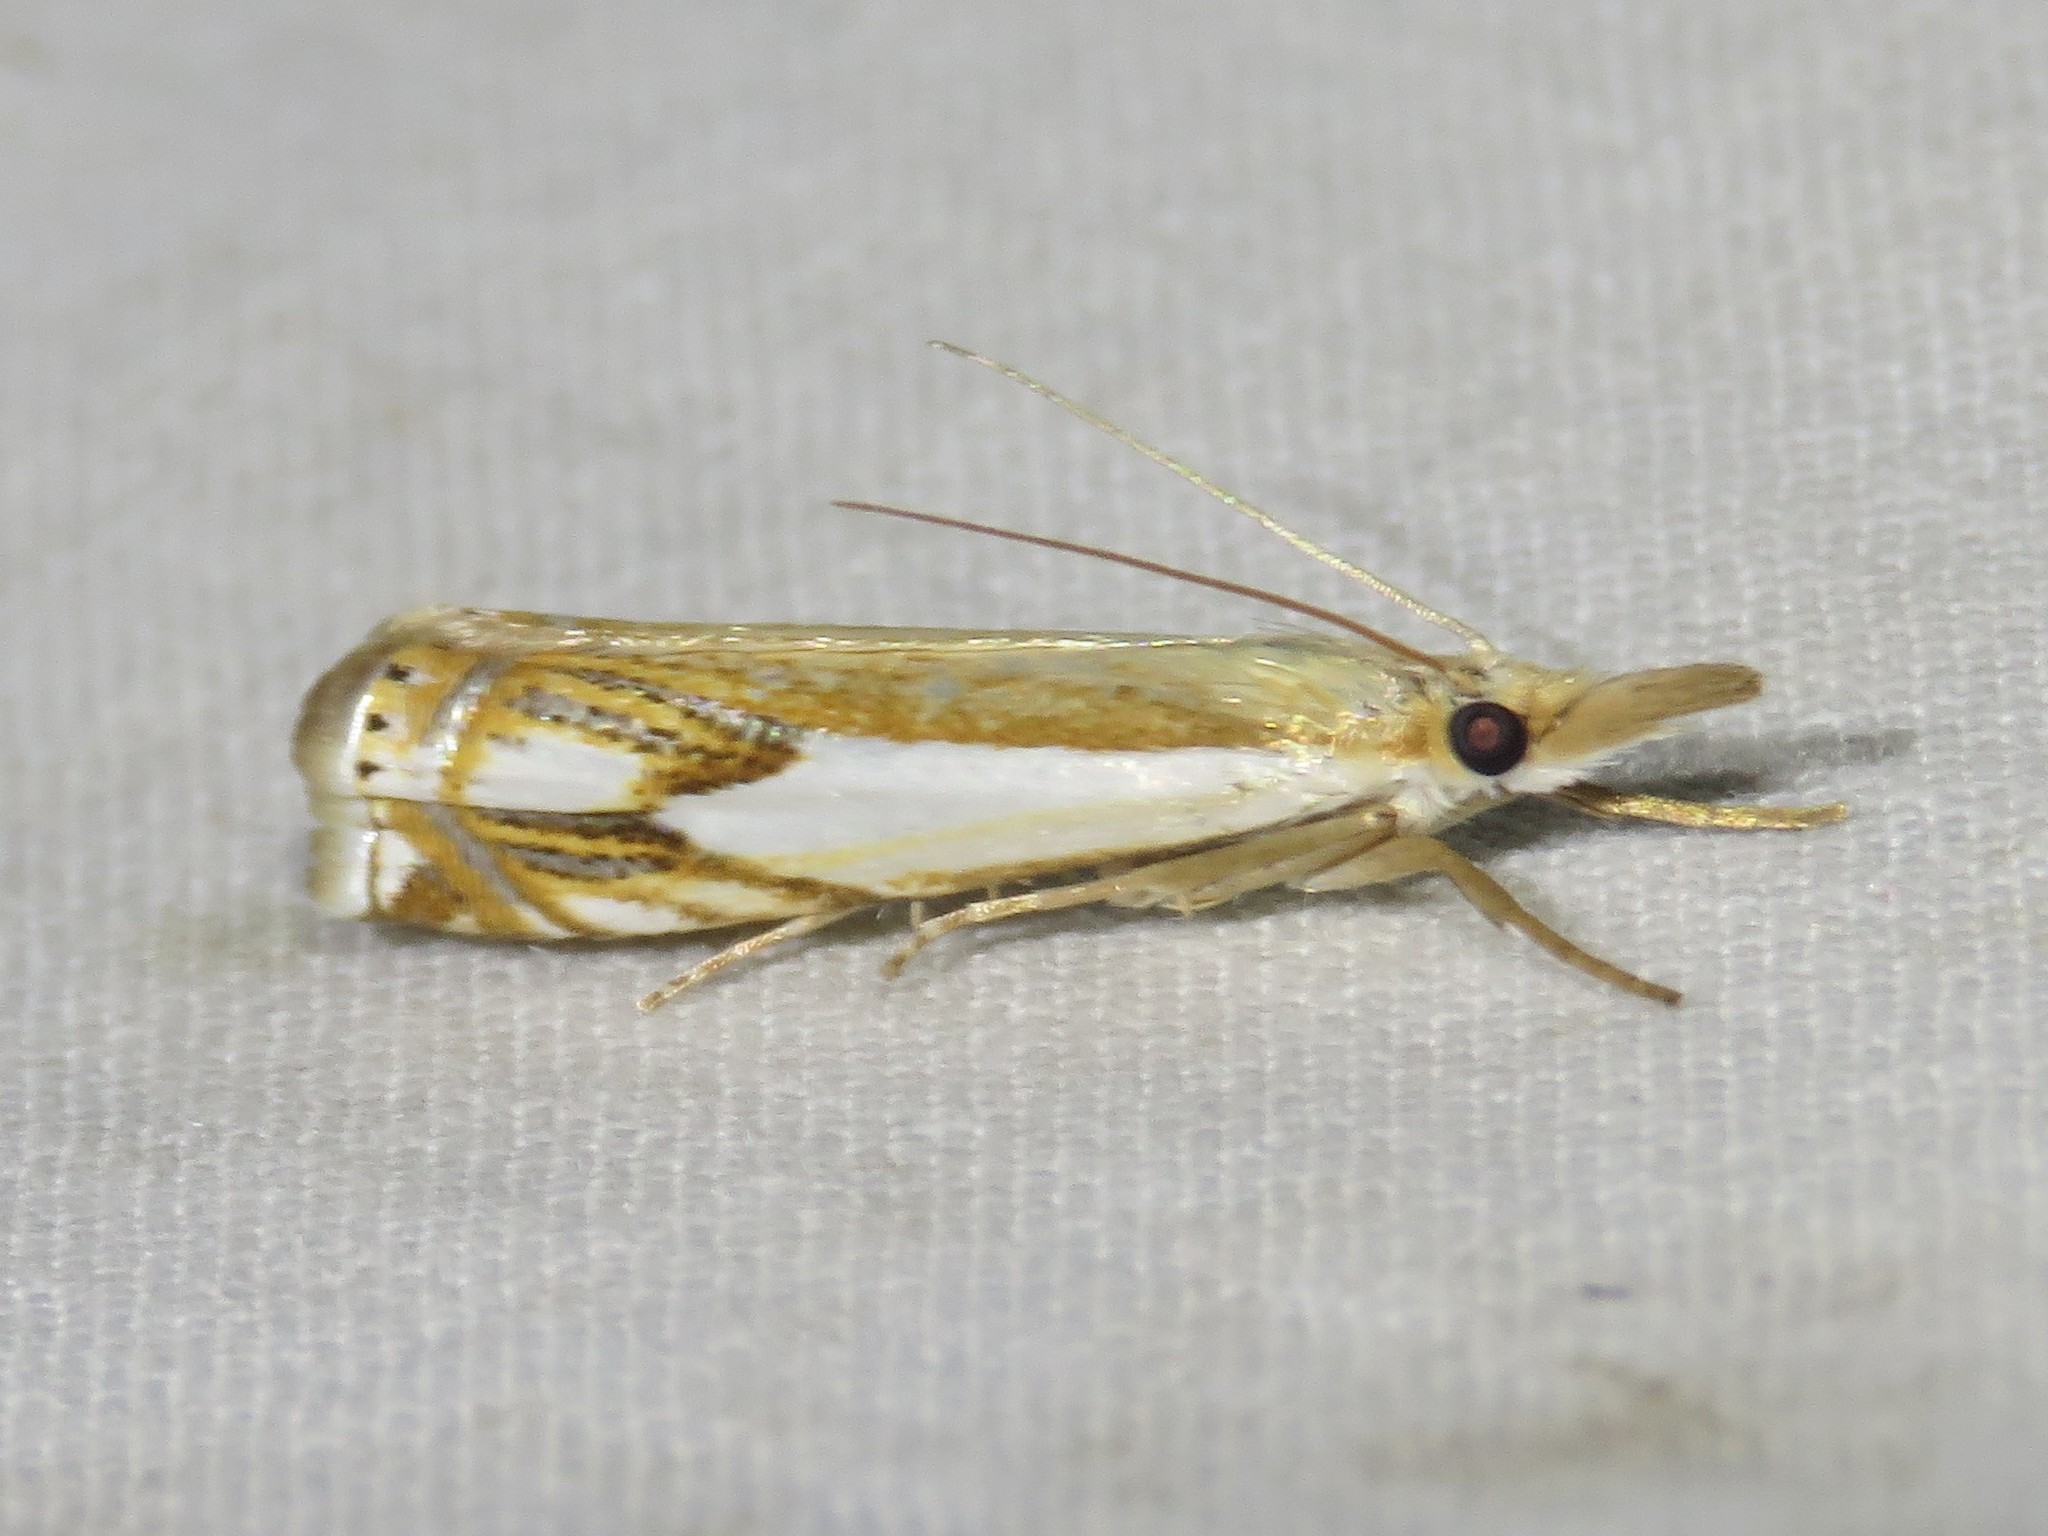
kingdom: Animalia
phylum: Arthropoda
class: Insecta
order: Lepidoptera
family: Crambidae
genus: Crambus
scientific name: Crambus agitatellus
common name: Double-banded grass-veneer
